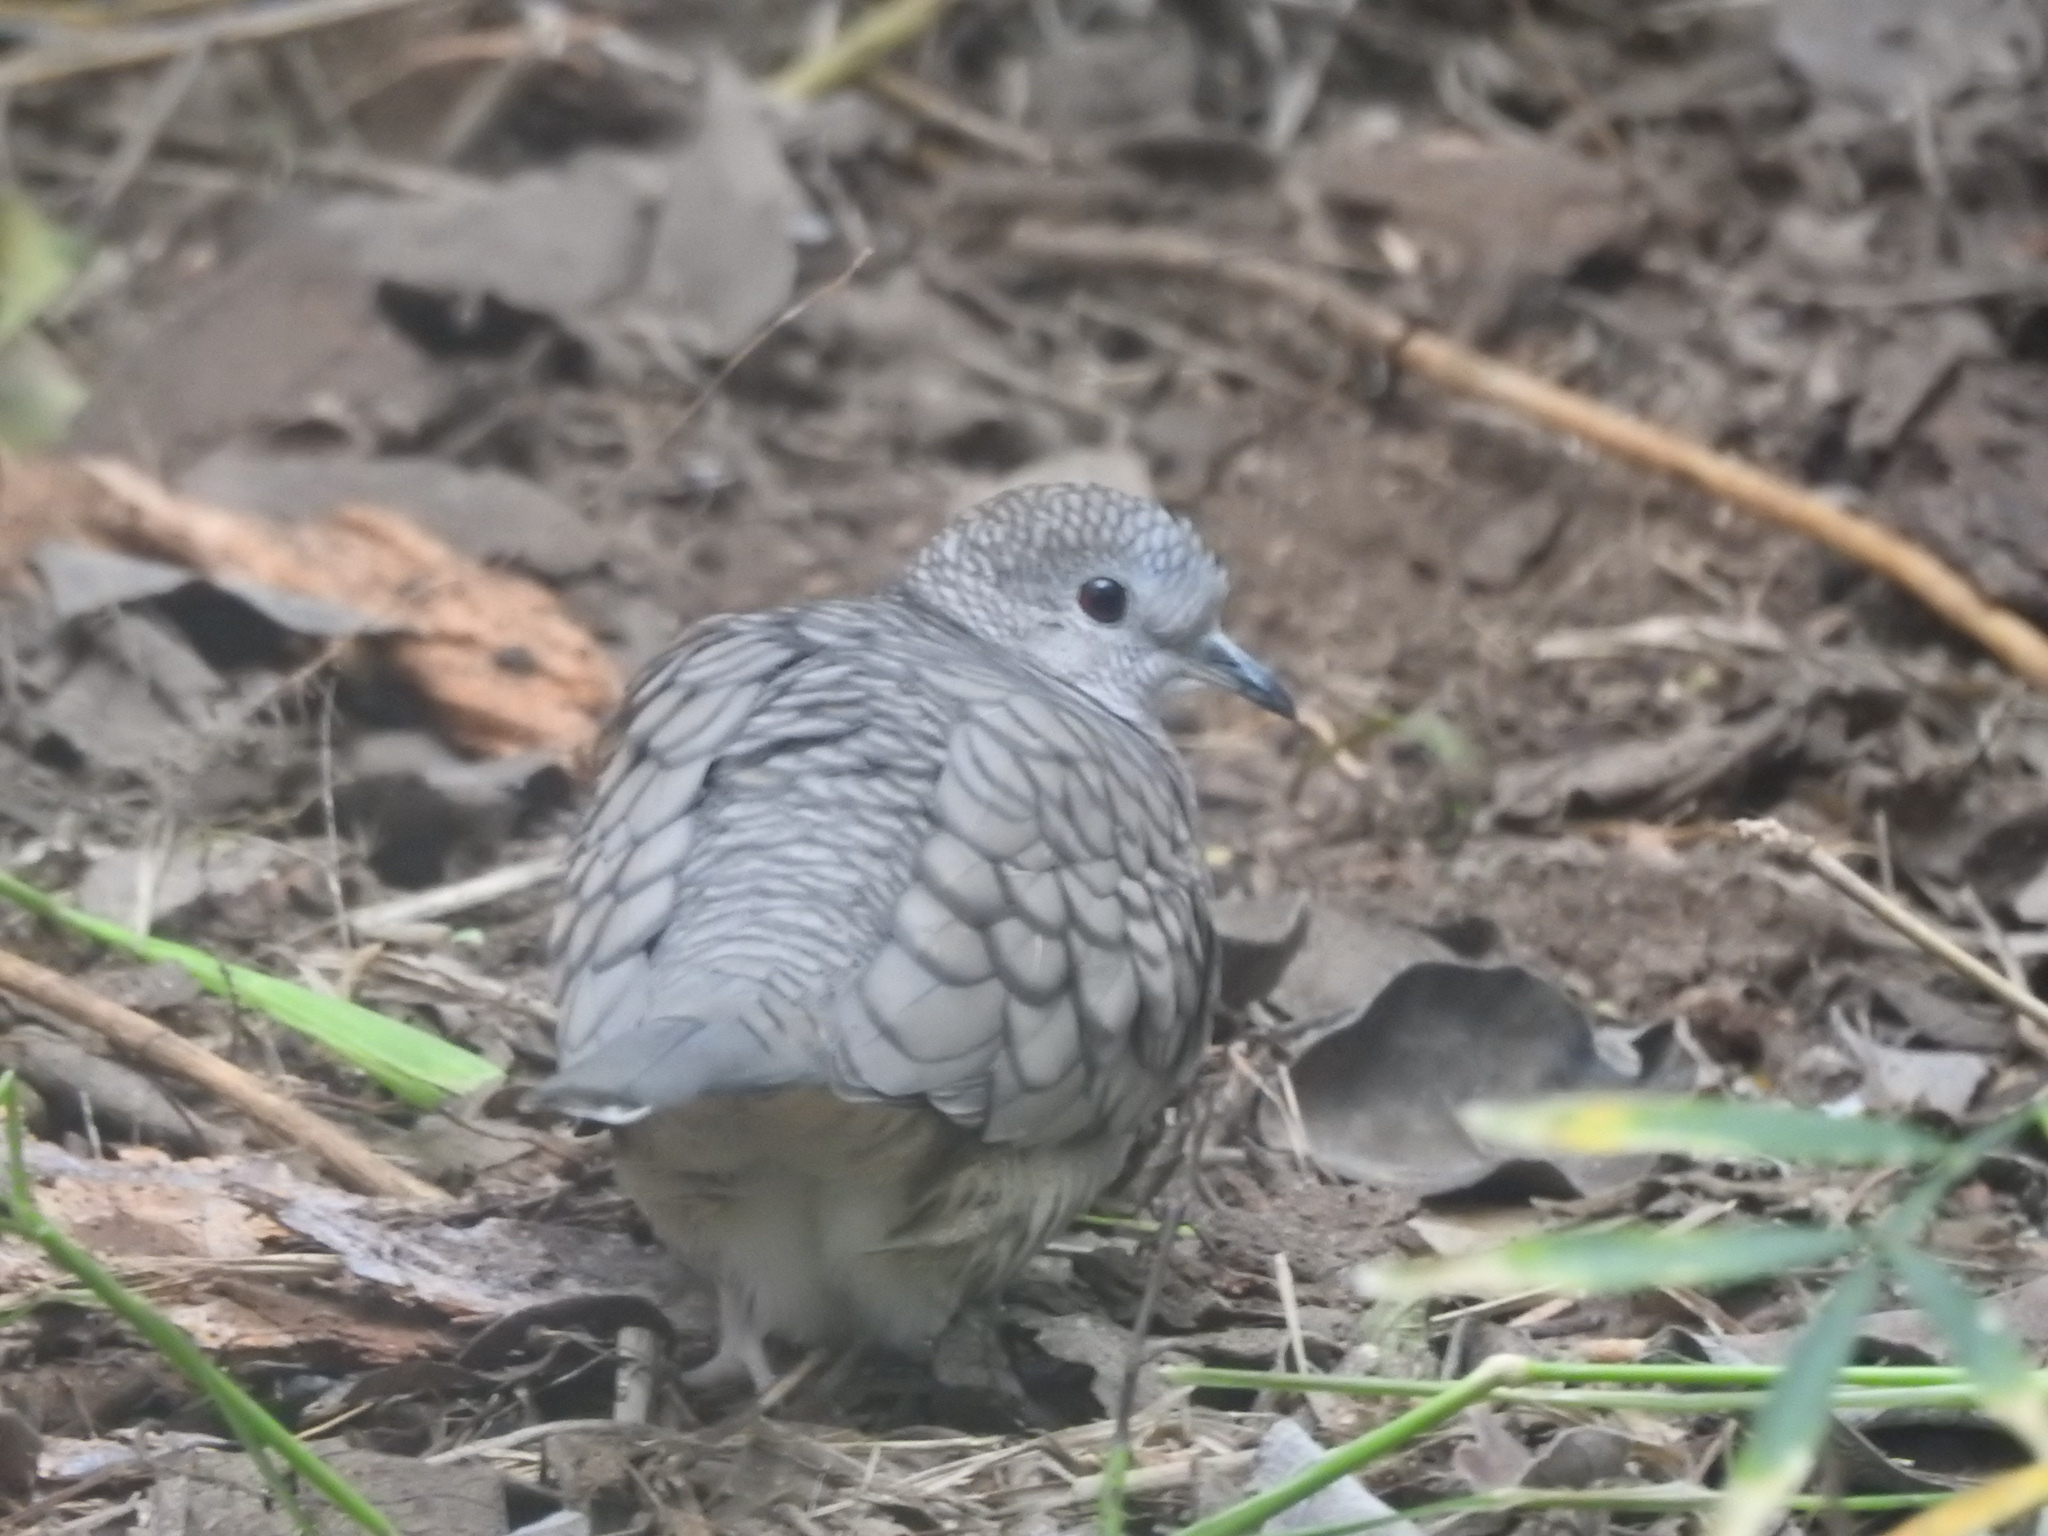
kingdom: Animalia
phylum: Chordata
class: Aves
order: Columbiformes
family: Columbidae
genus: Columbina
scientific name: Columbina inca
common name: Inca dove
